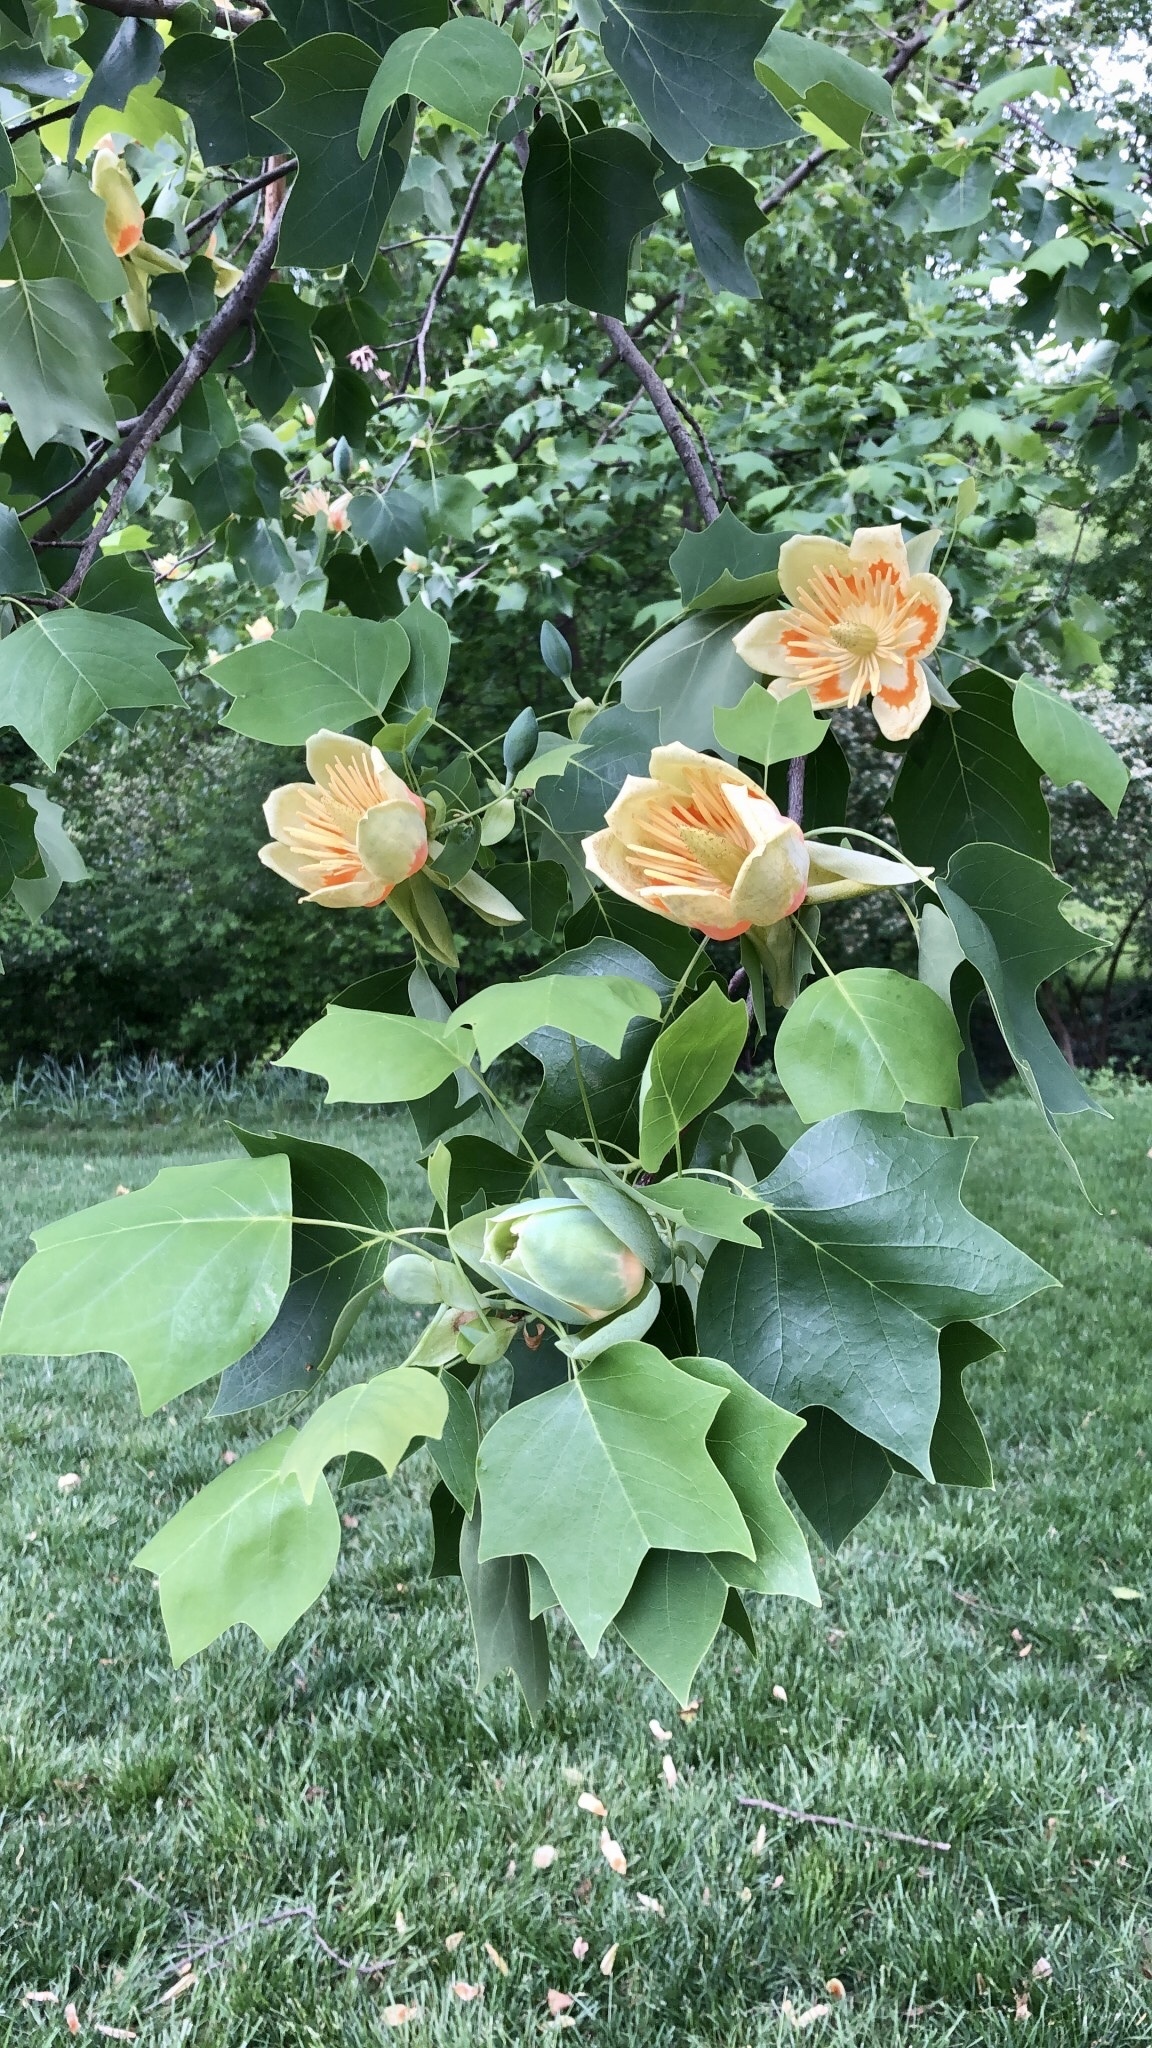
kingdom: Plantae
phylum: Tracheophyta
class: Magnoliopsida
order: Magnoliales
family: Magnoliaceae
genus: Liriodendron
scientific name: Liriodendron tulipifera
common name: Tulip tree
